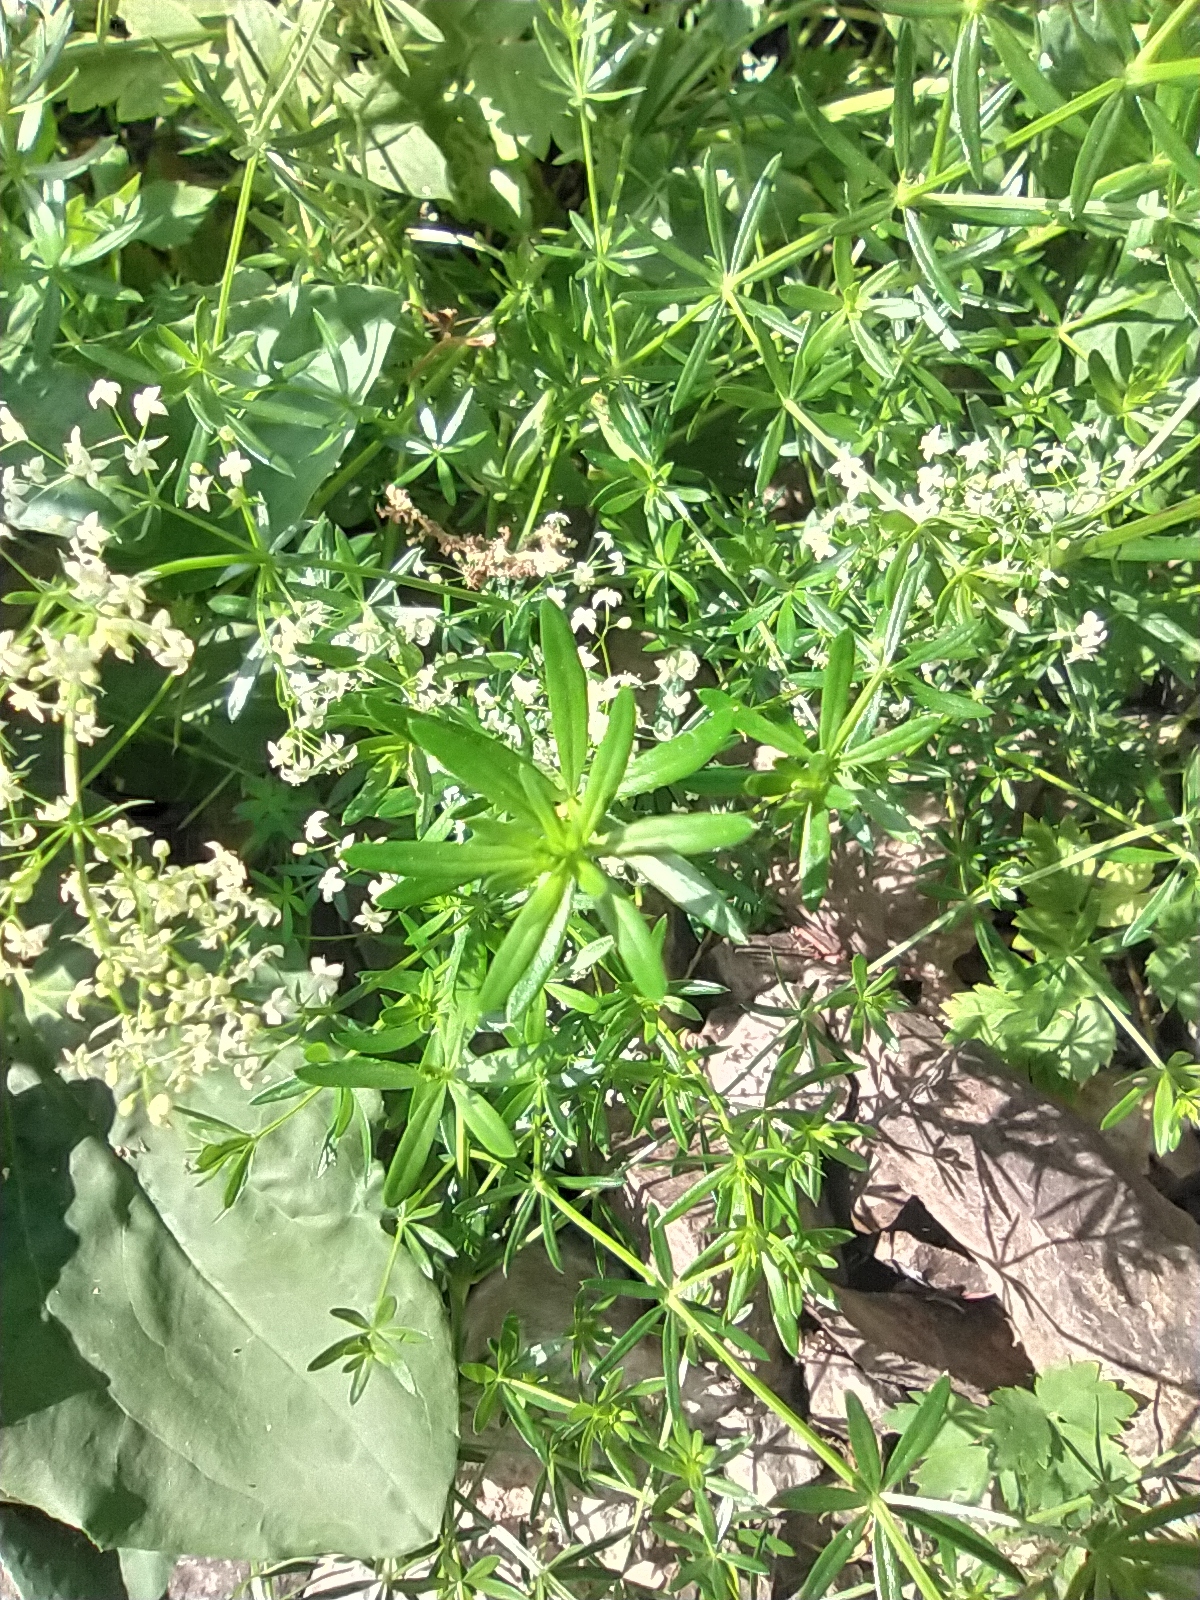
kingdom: Plantae
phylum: Tracheophyta
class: Magnoliopsida
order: Gentianales
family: Rubiaceae
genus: Galium
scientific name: Galium mollugo
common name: Hedge bedstraw
